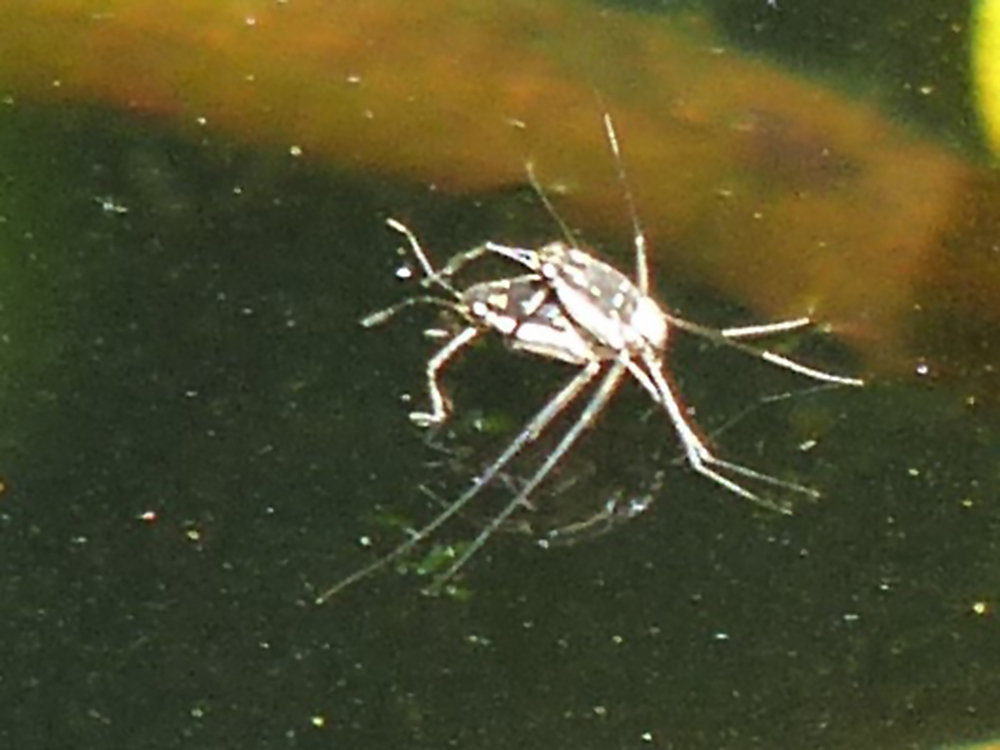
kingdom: Animalia
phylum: Arthropoda
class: Insecta
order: Hemiptera
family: Gerridae
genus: Trepobates
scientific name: Trepobates subnitidus
